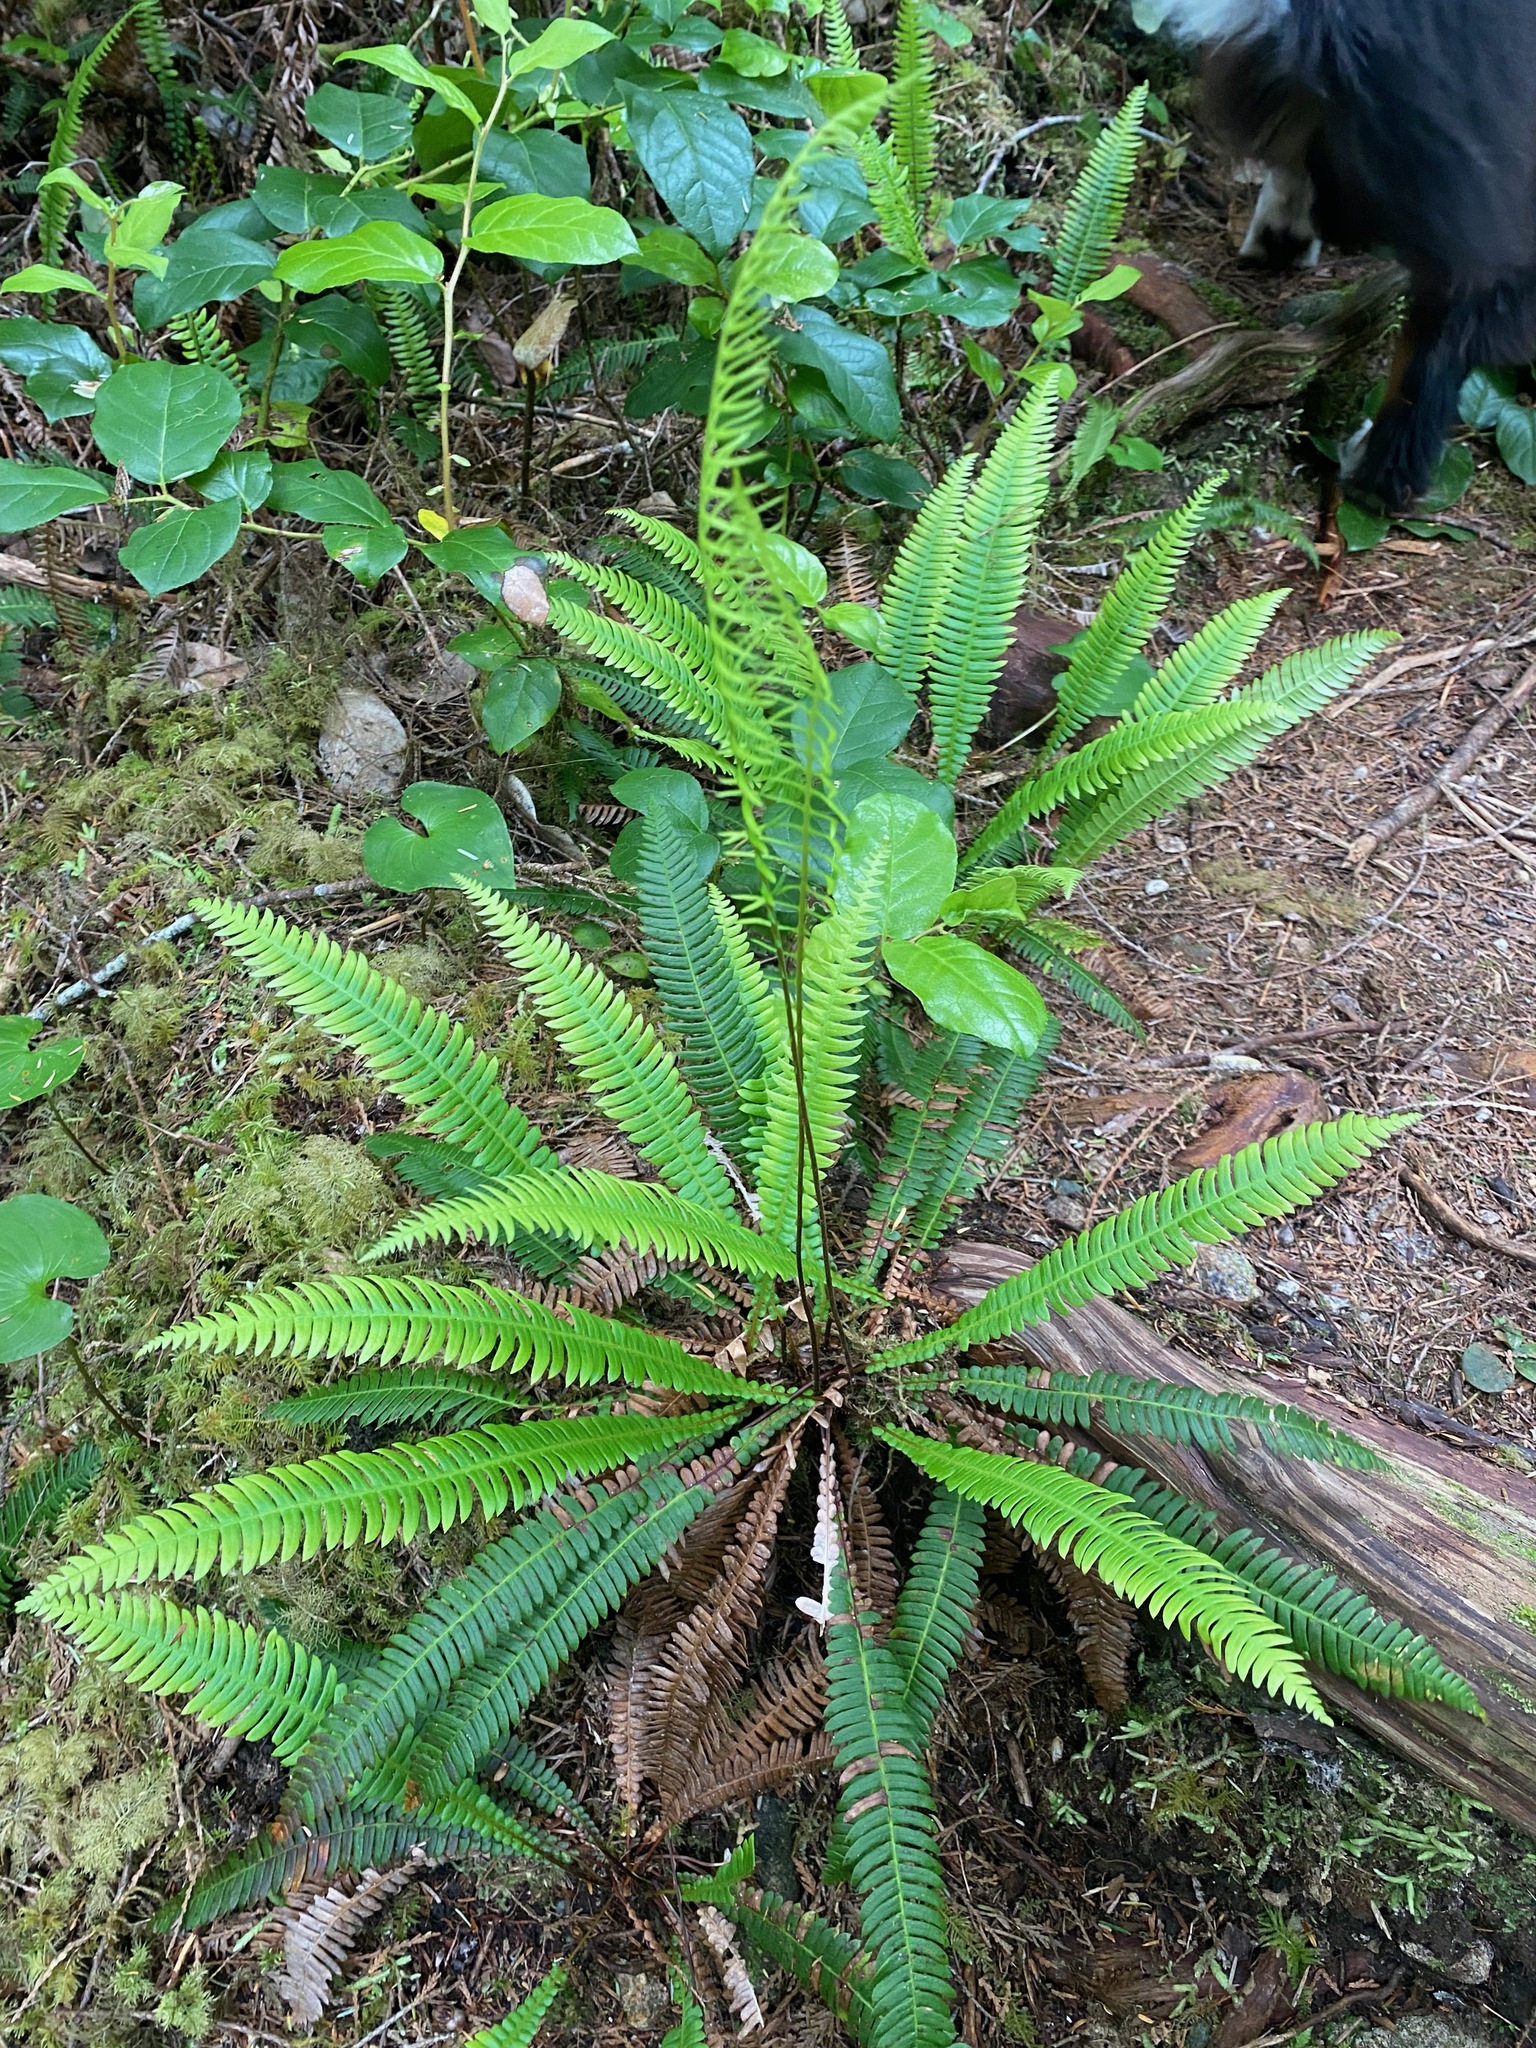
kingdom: Plantae
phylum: Tracheophyta
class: Polypodiopsida
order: Polypodiales
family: Blechnaceae
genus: Struthiopteris
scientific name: Struthiopteris spicant
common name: Deer fern
